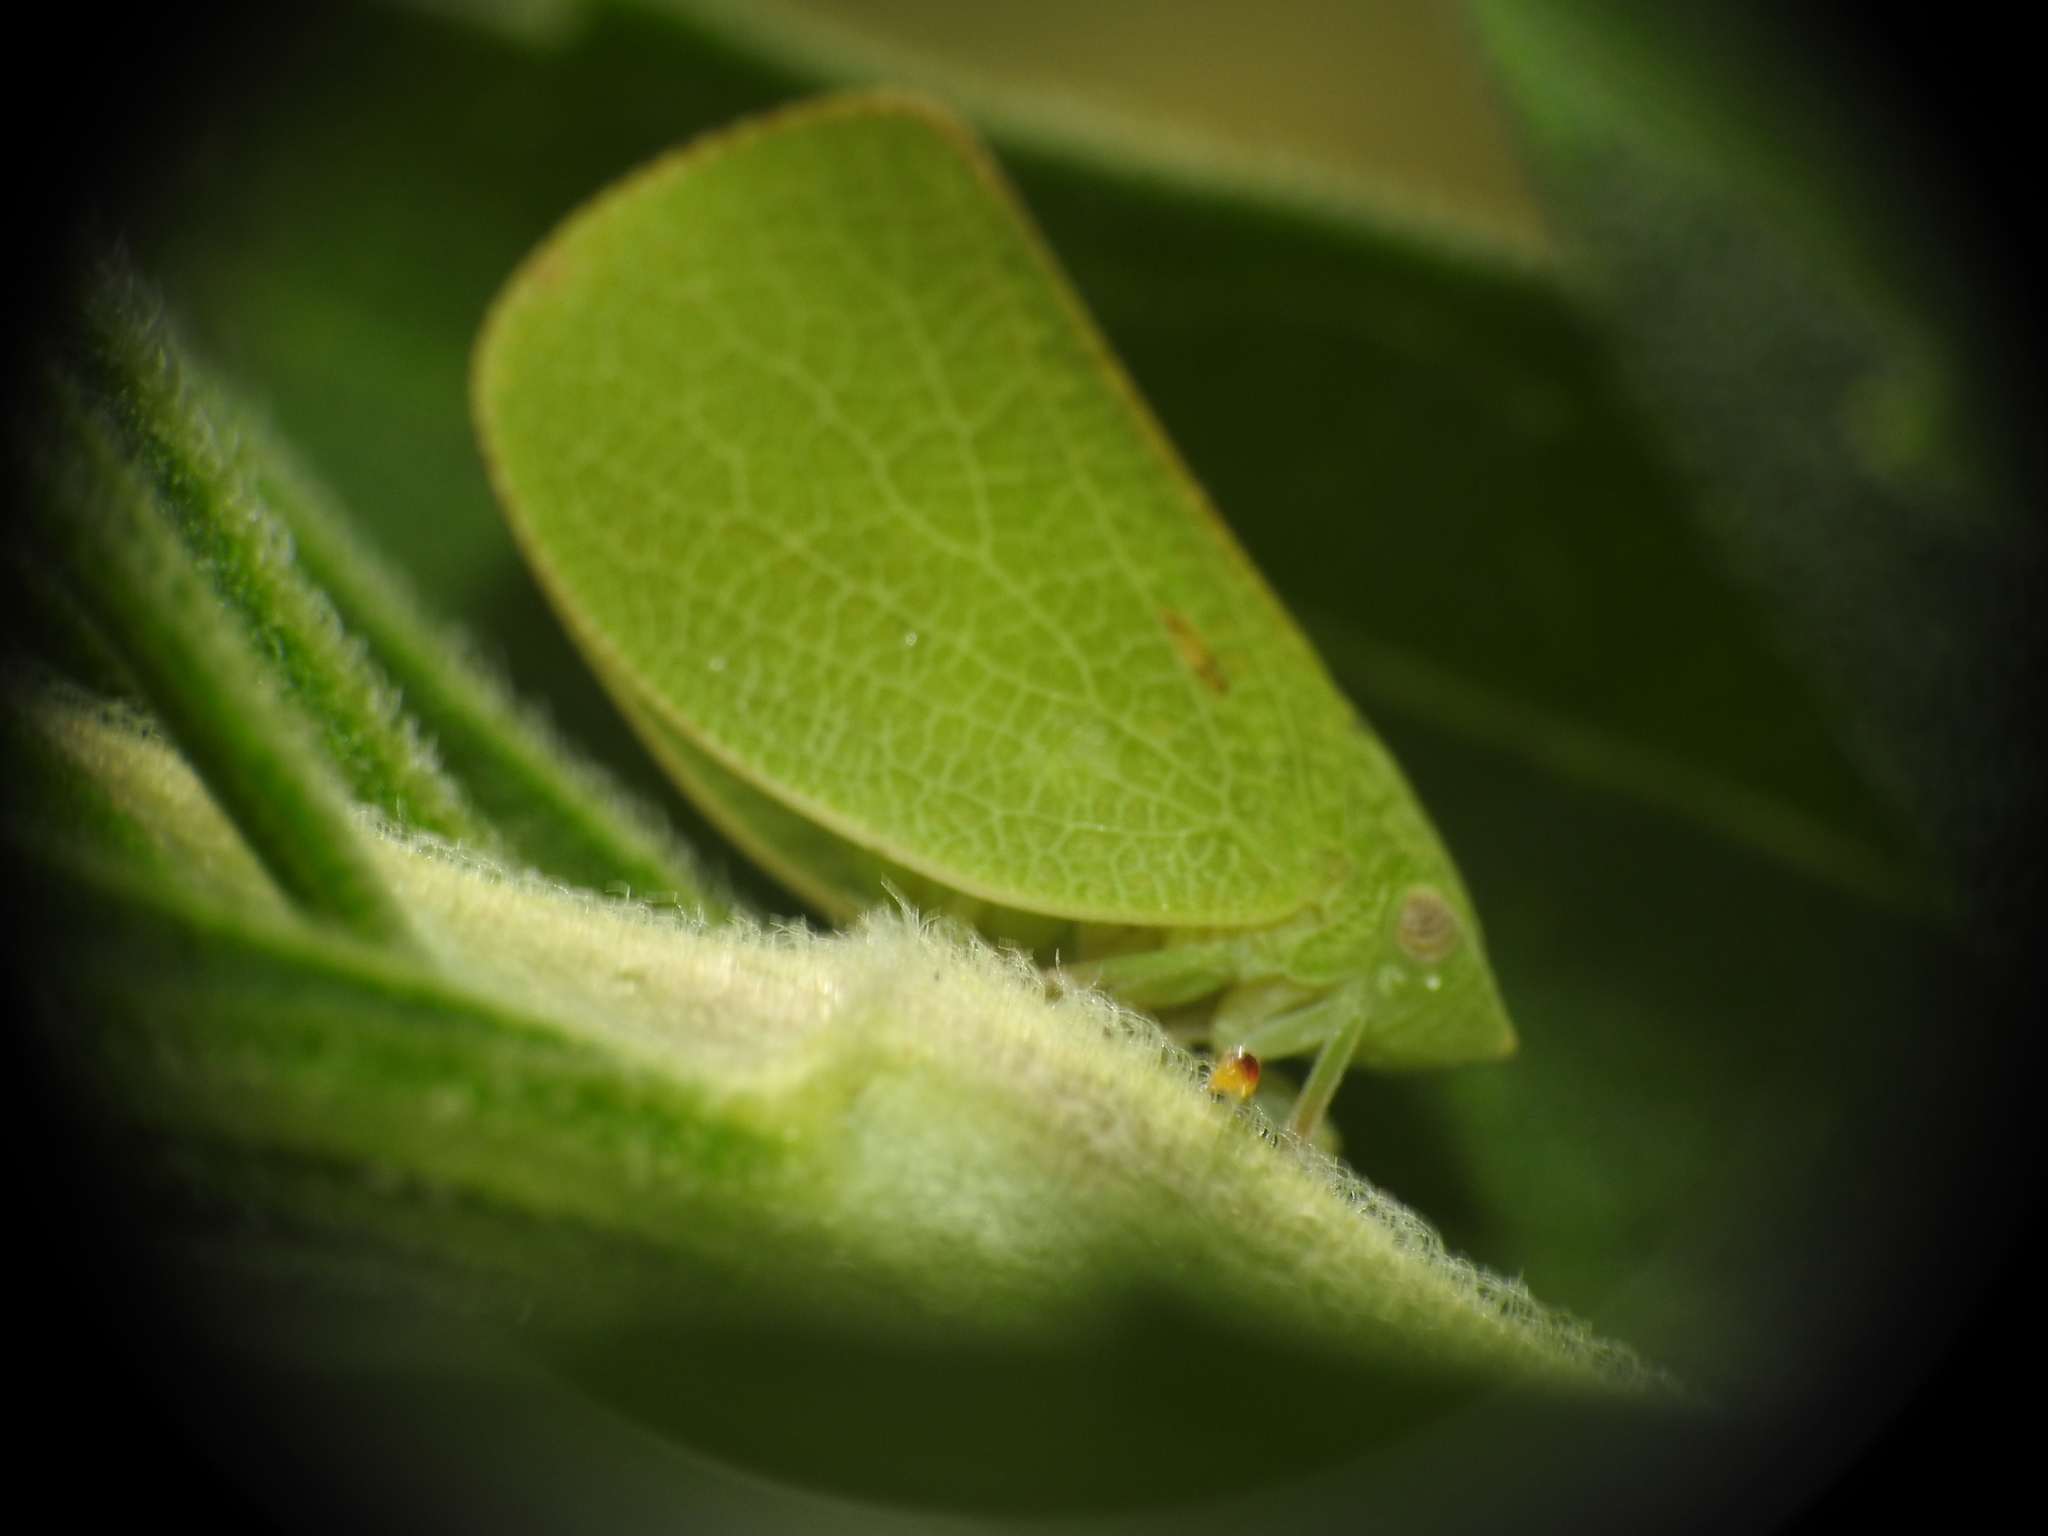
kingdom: Animalia
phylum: Arthropoda
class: Insecta
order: Hemiptera
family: Acanaloniidae
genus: Acanalonia
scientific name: Acanalonia conica
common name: Green cone-headed planthopper
